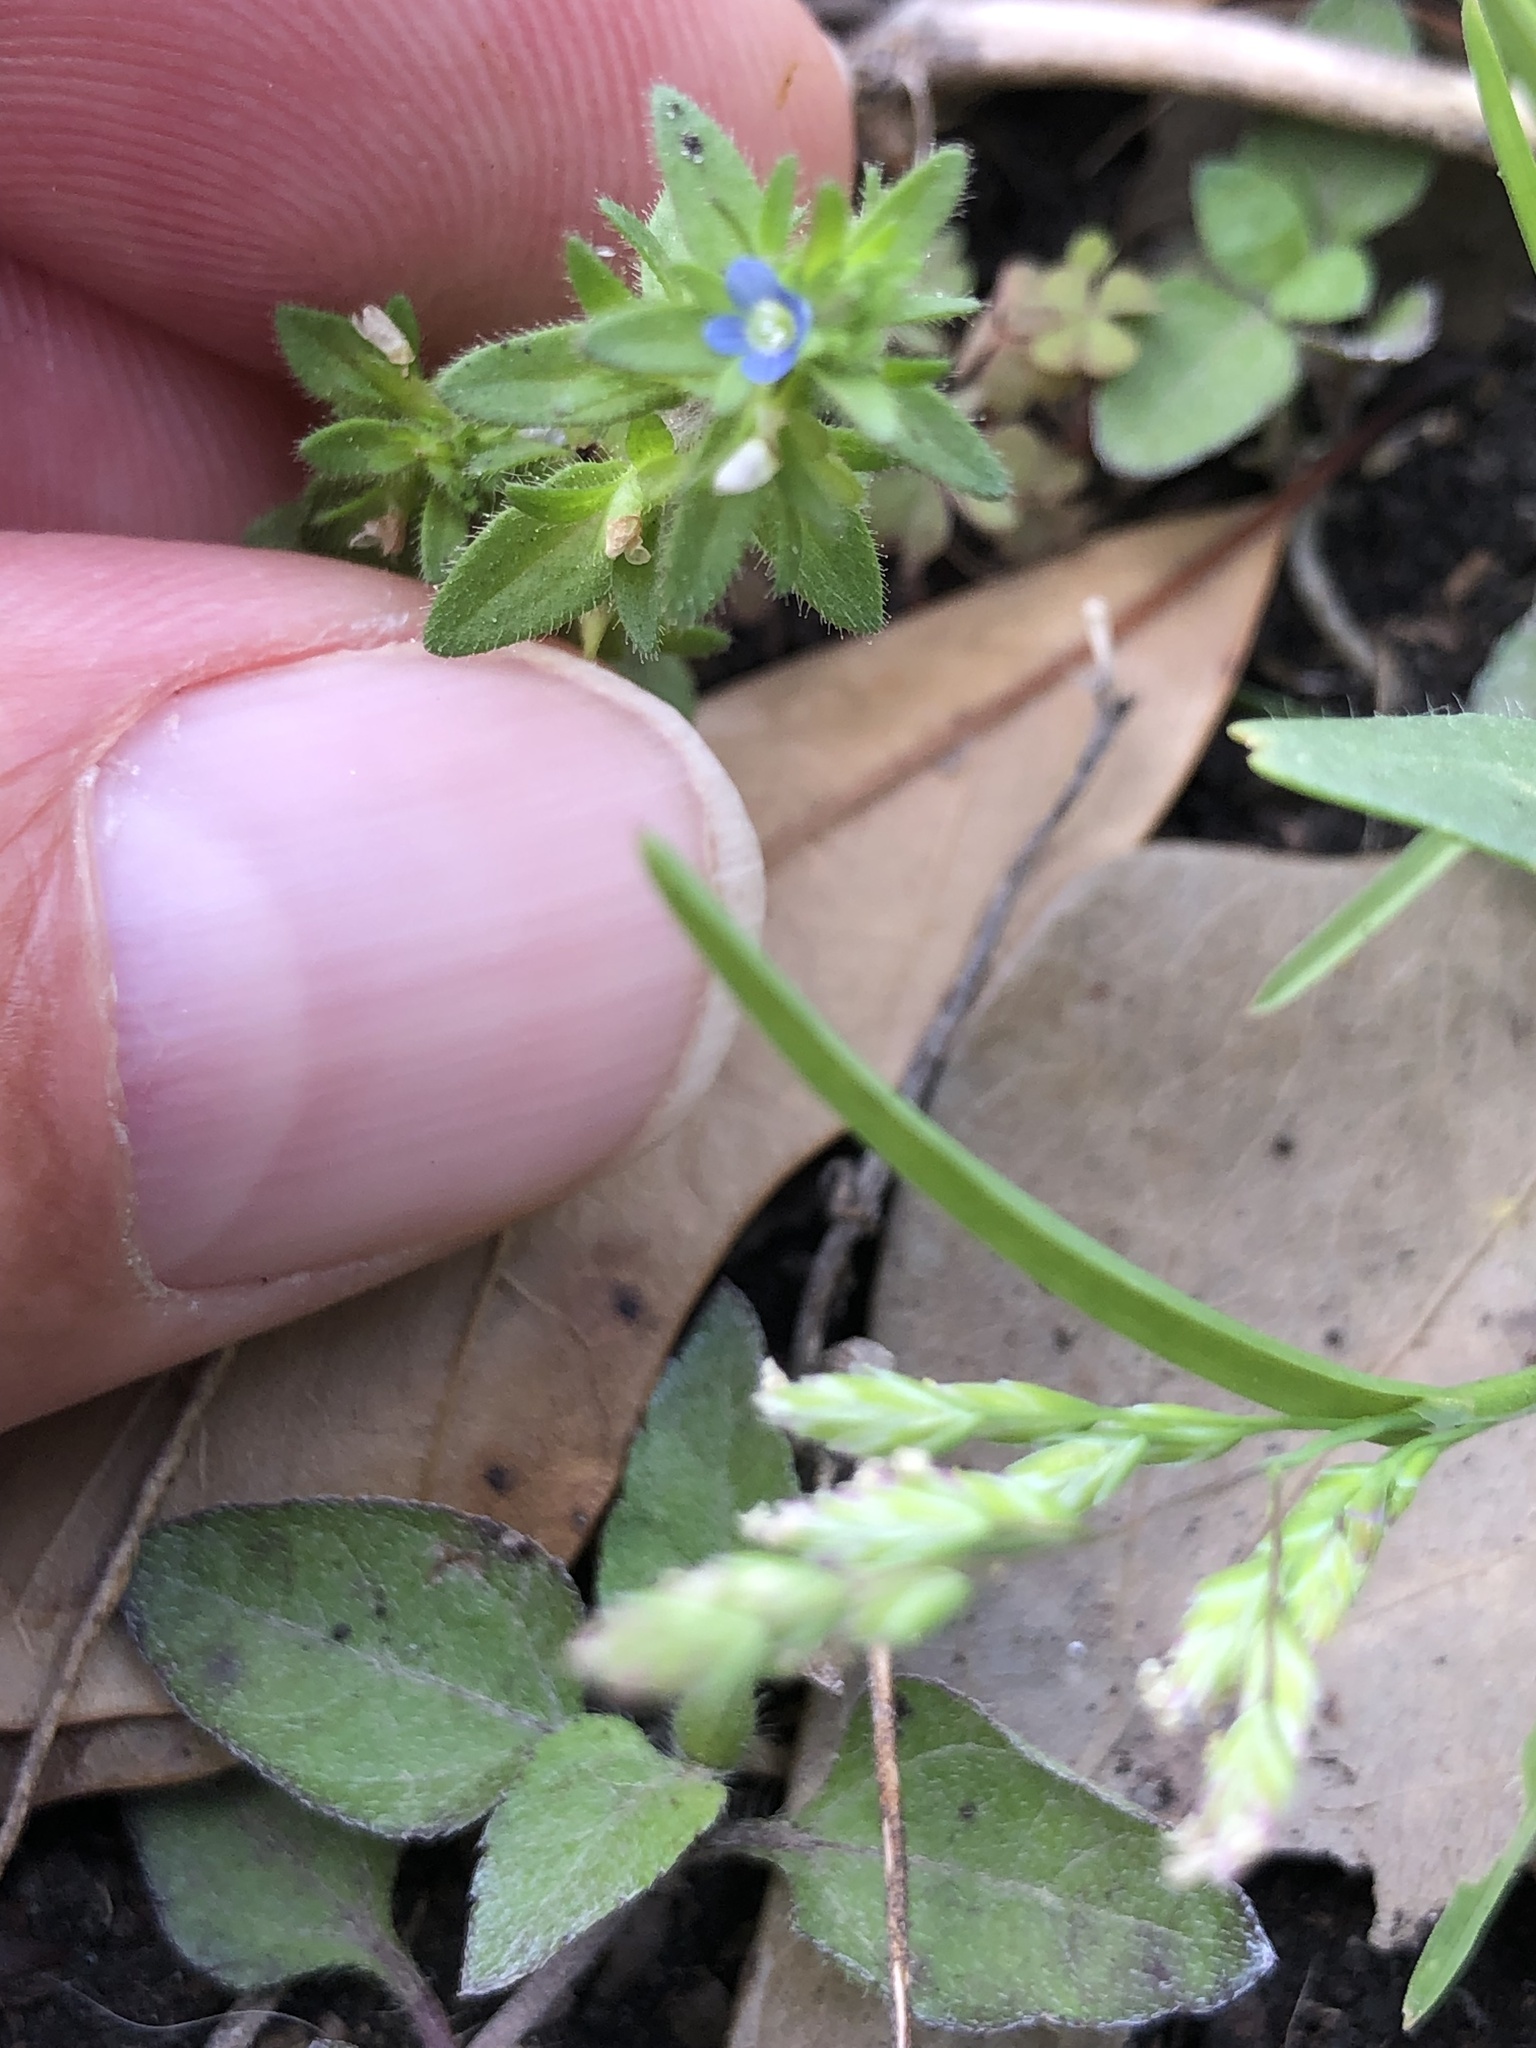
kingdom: Plantae
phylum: Tracheophyta
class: Magnoliopsida
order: Lamiales
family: Plantaginaceae
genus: Veronica
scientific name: Veronica arvensis
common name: Corn speedwell
